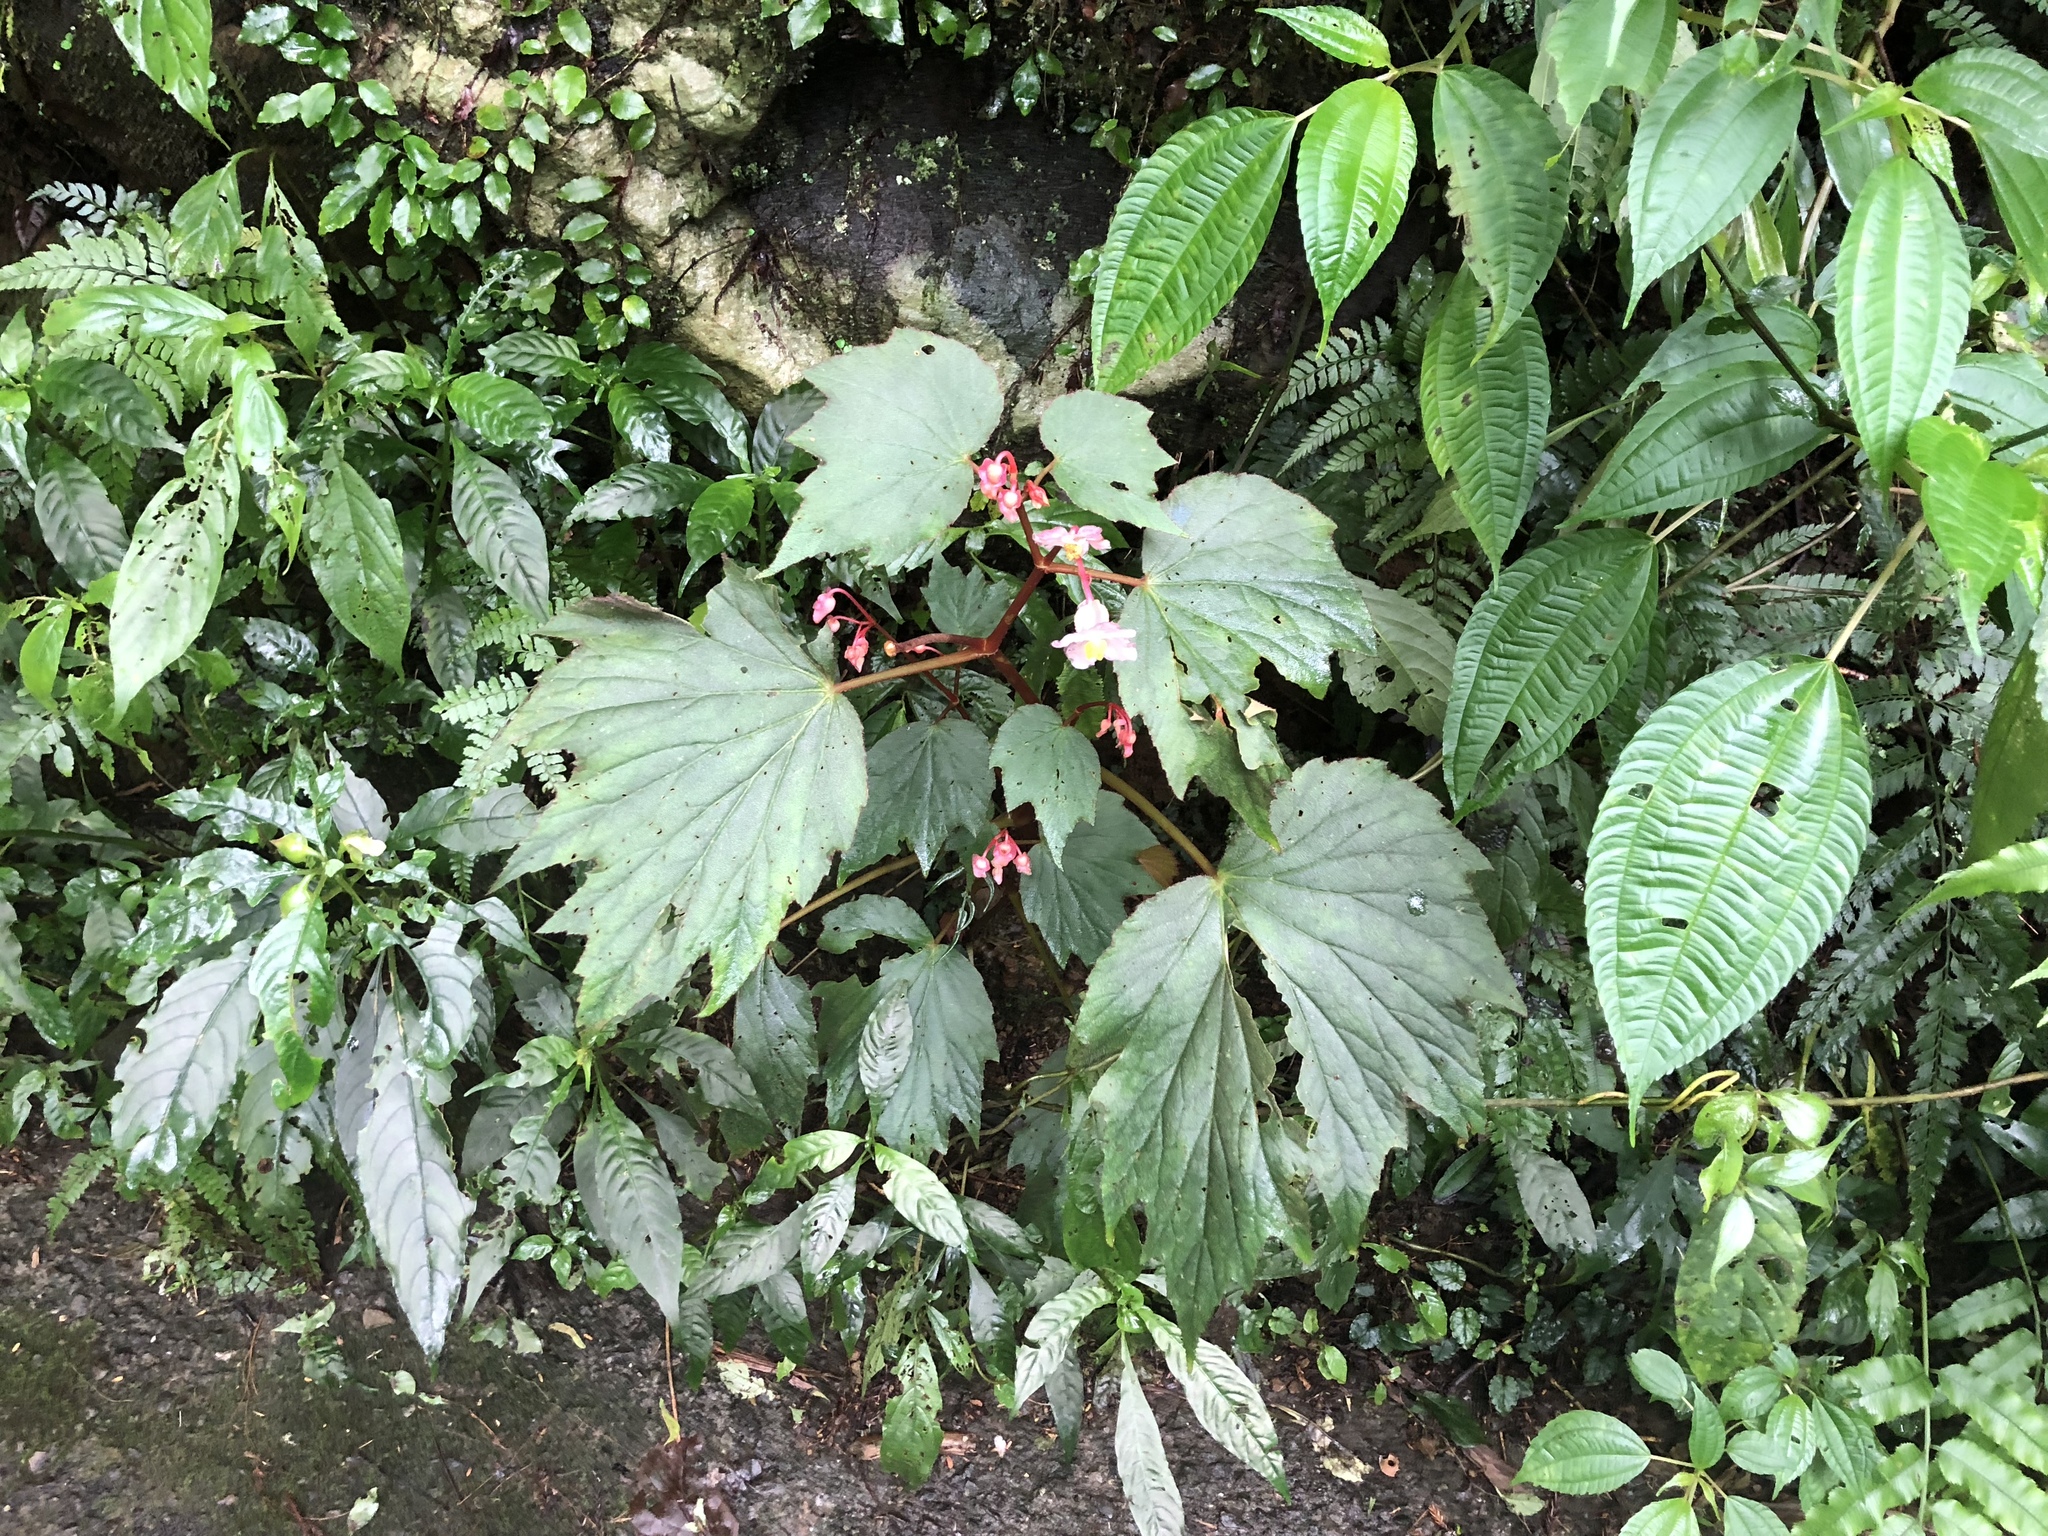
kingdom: Plantae
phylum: Tracheophyta
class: Magnoliopsida
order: Cucurbitales
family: Begoniaceae
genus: Begonia
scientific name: Begonia palmata
